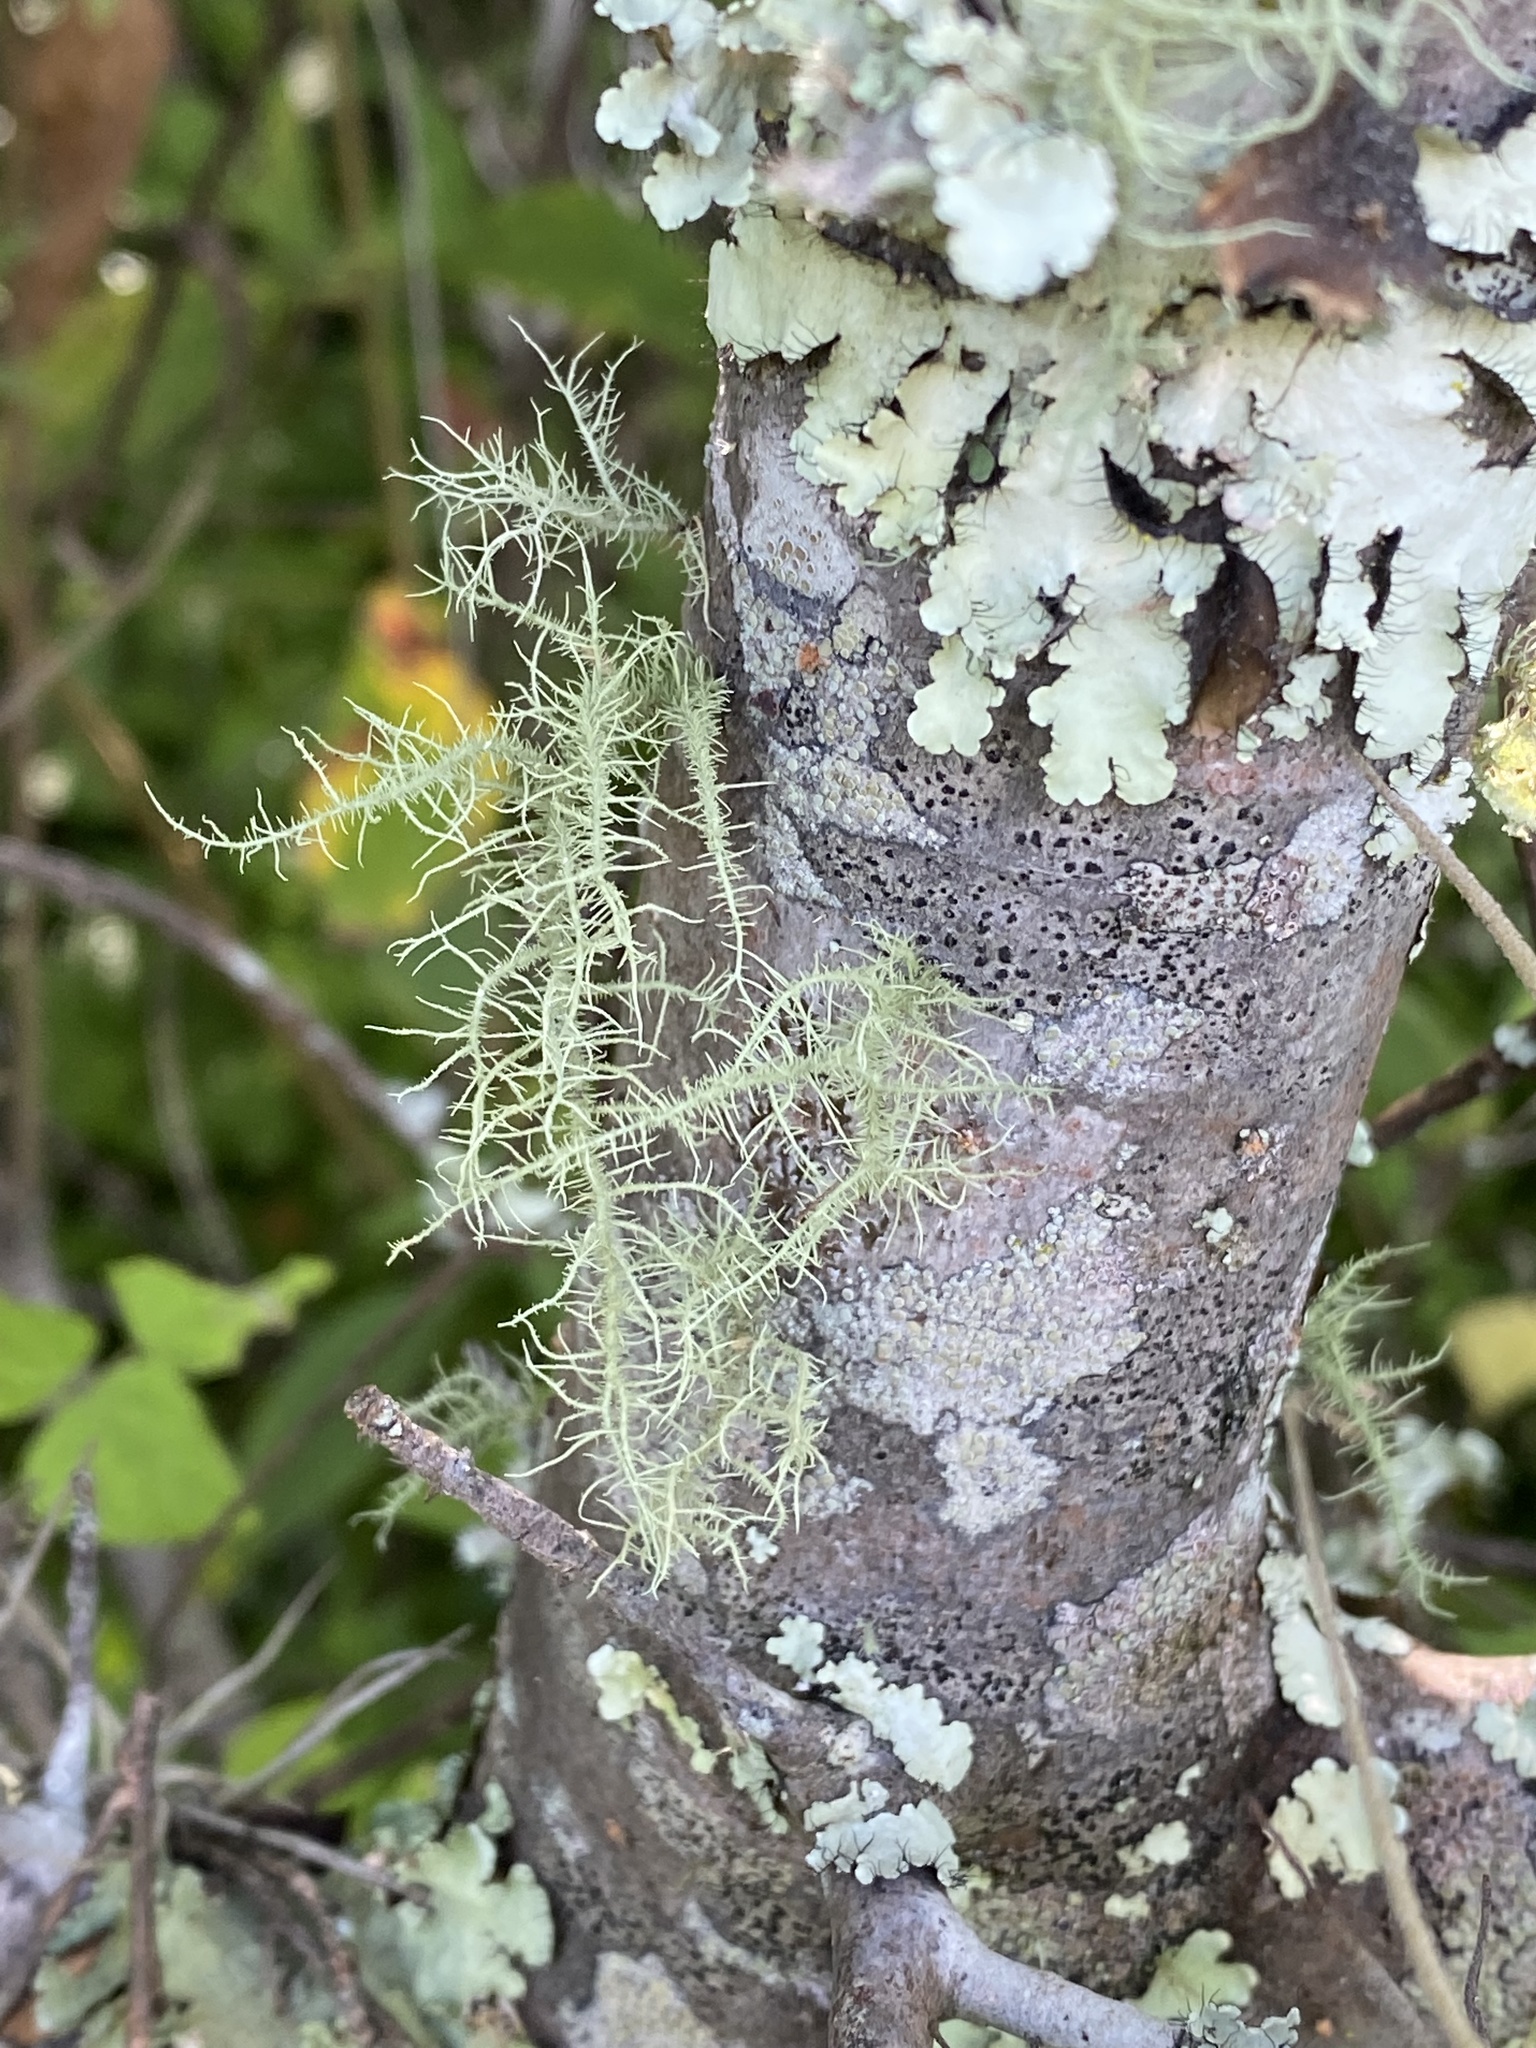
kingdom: Fungi
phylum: Ascomycota
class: Lecanoromycetes
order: Lecanorales
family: Parmeliaceae
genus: Usnea
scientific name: Usnea
